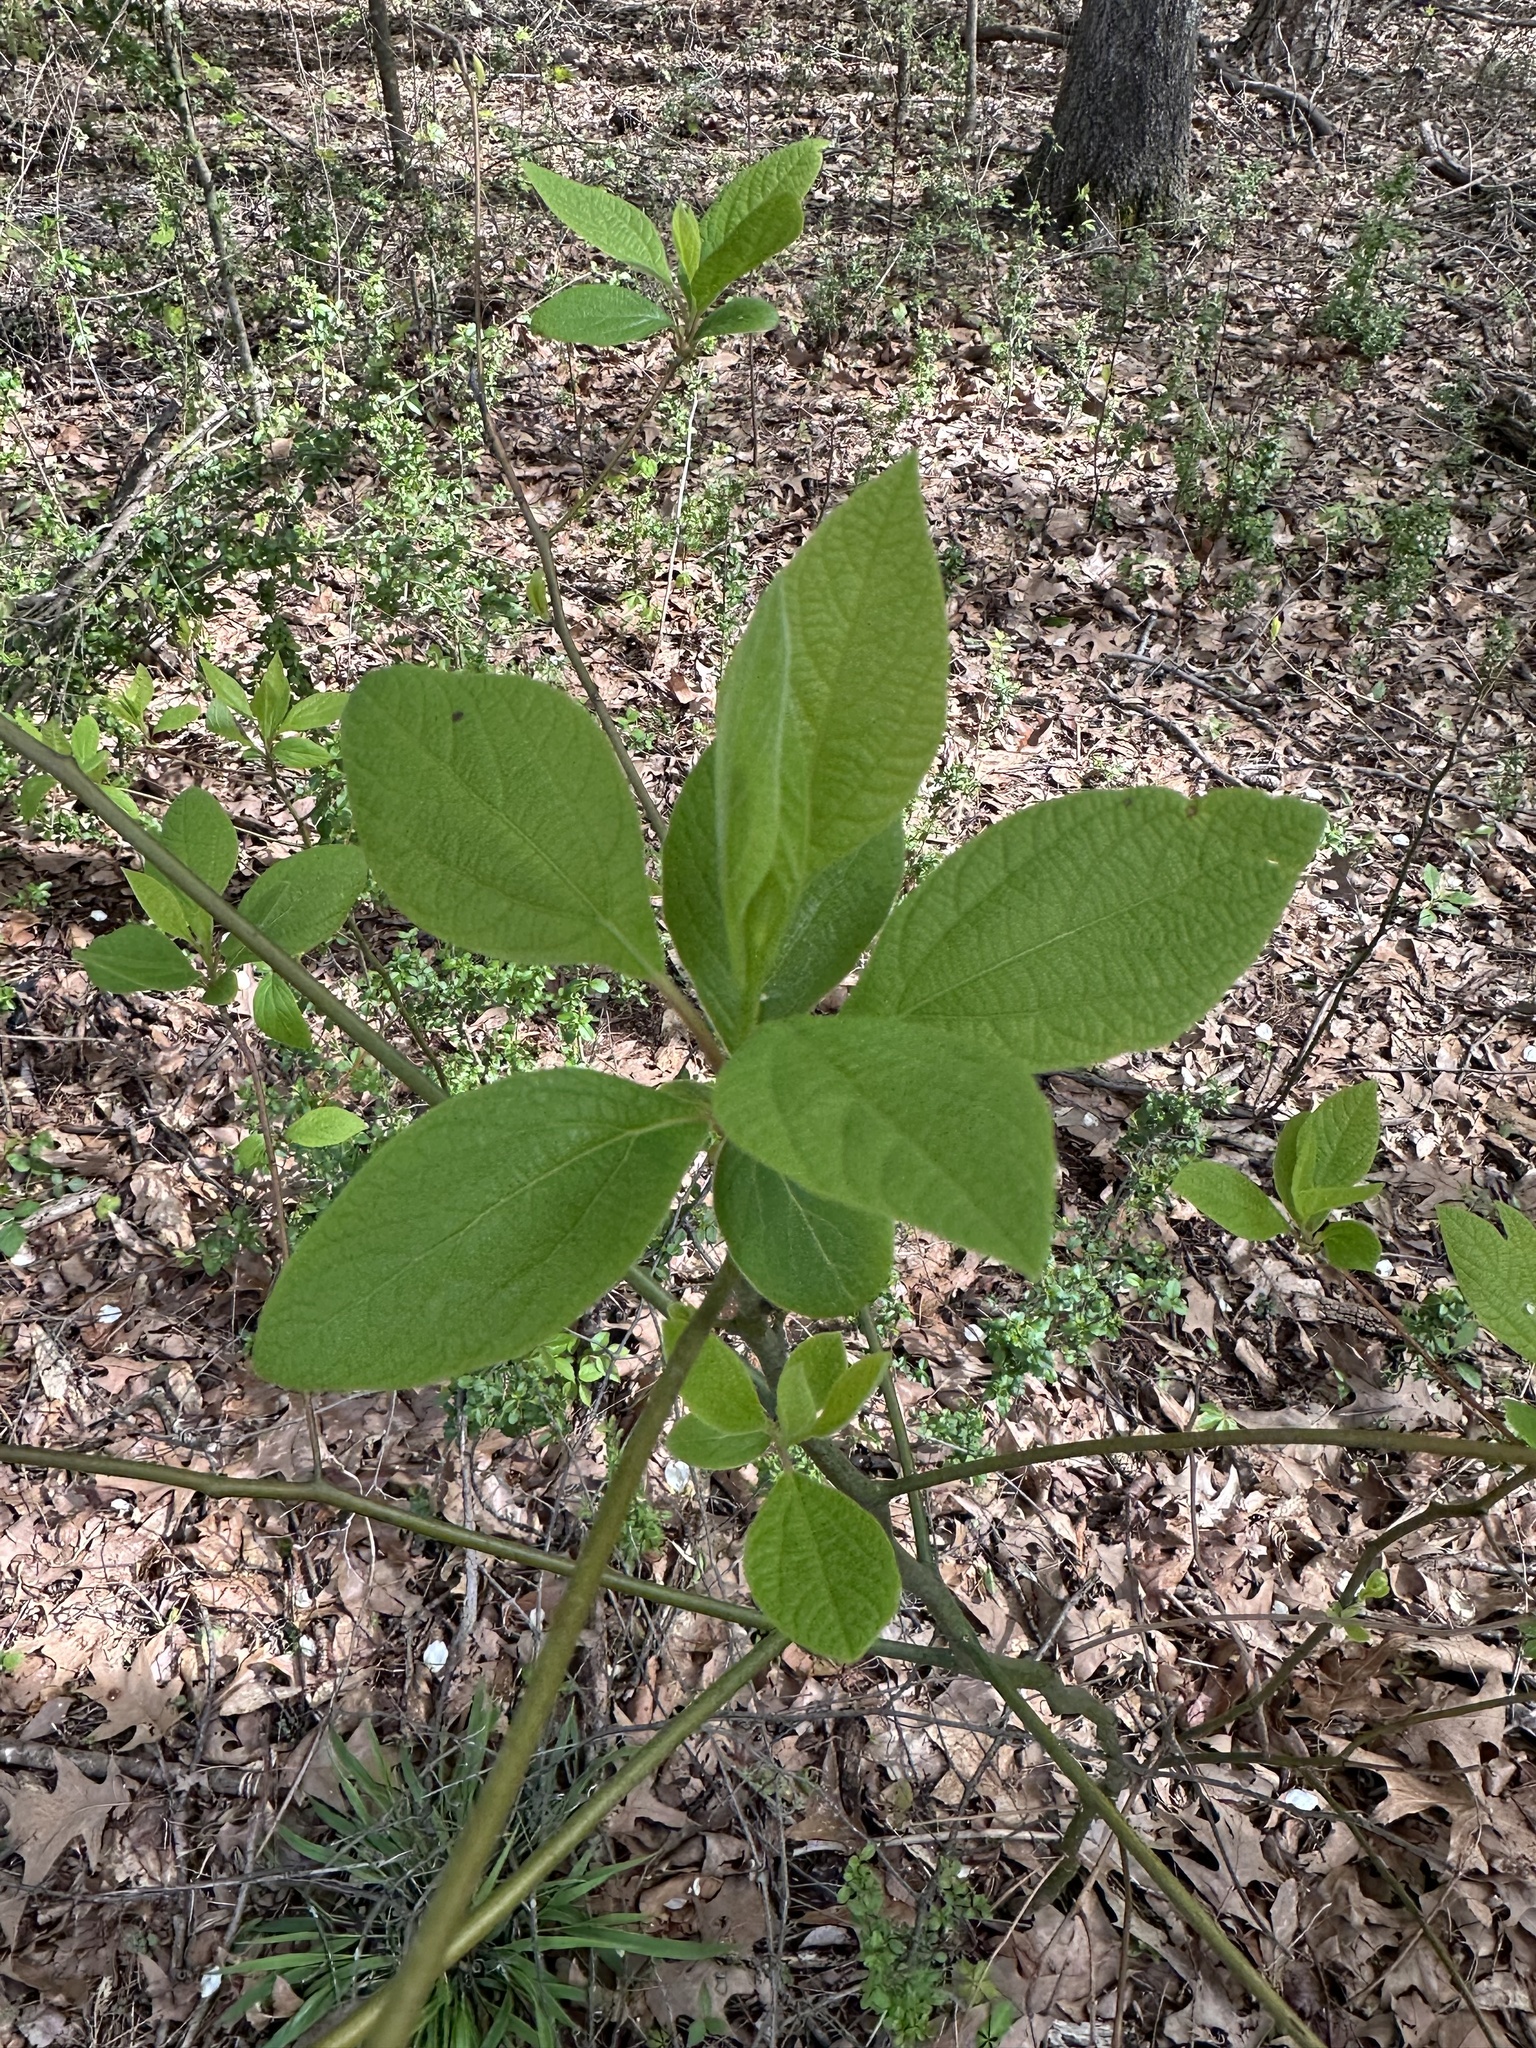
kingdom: Plantae
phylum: Tracheophyta
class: Magnoliopsida
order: Laurales
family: Lauraceae
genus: Sassafras
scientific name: Sassafras albidum
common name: Sassafras
